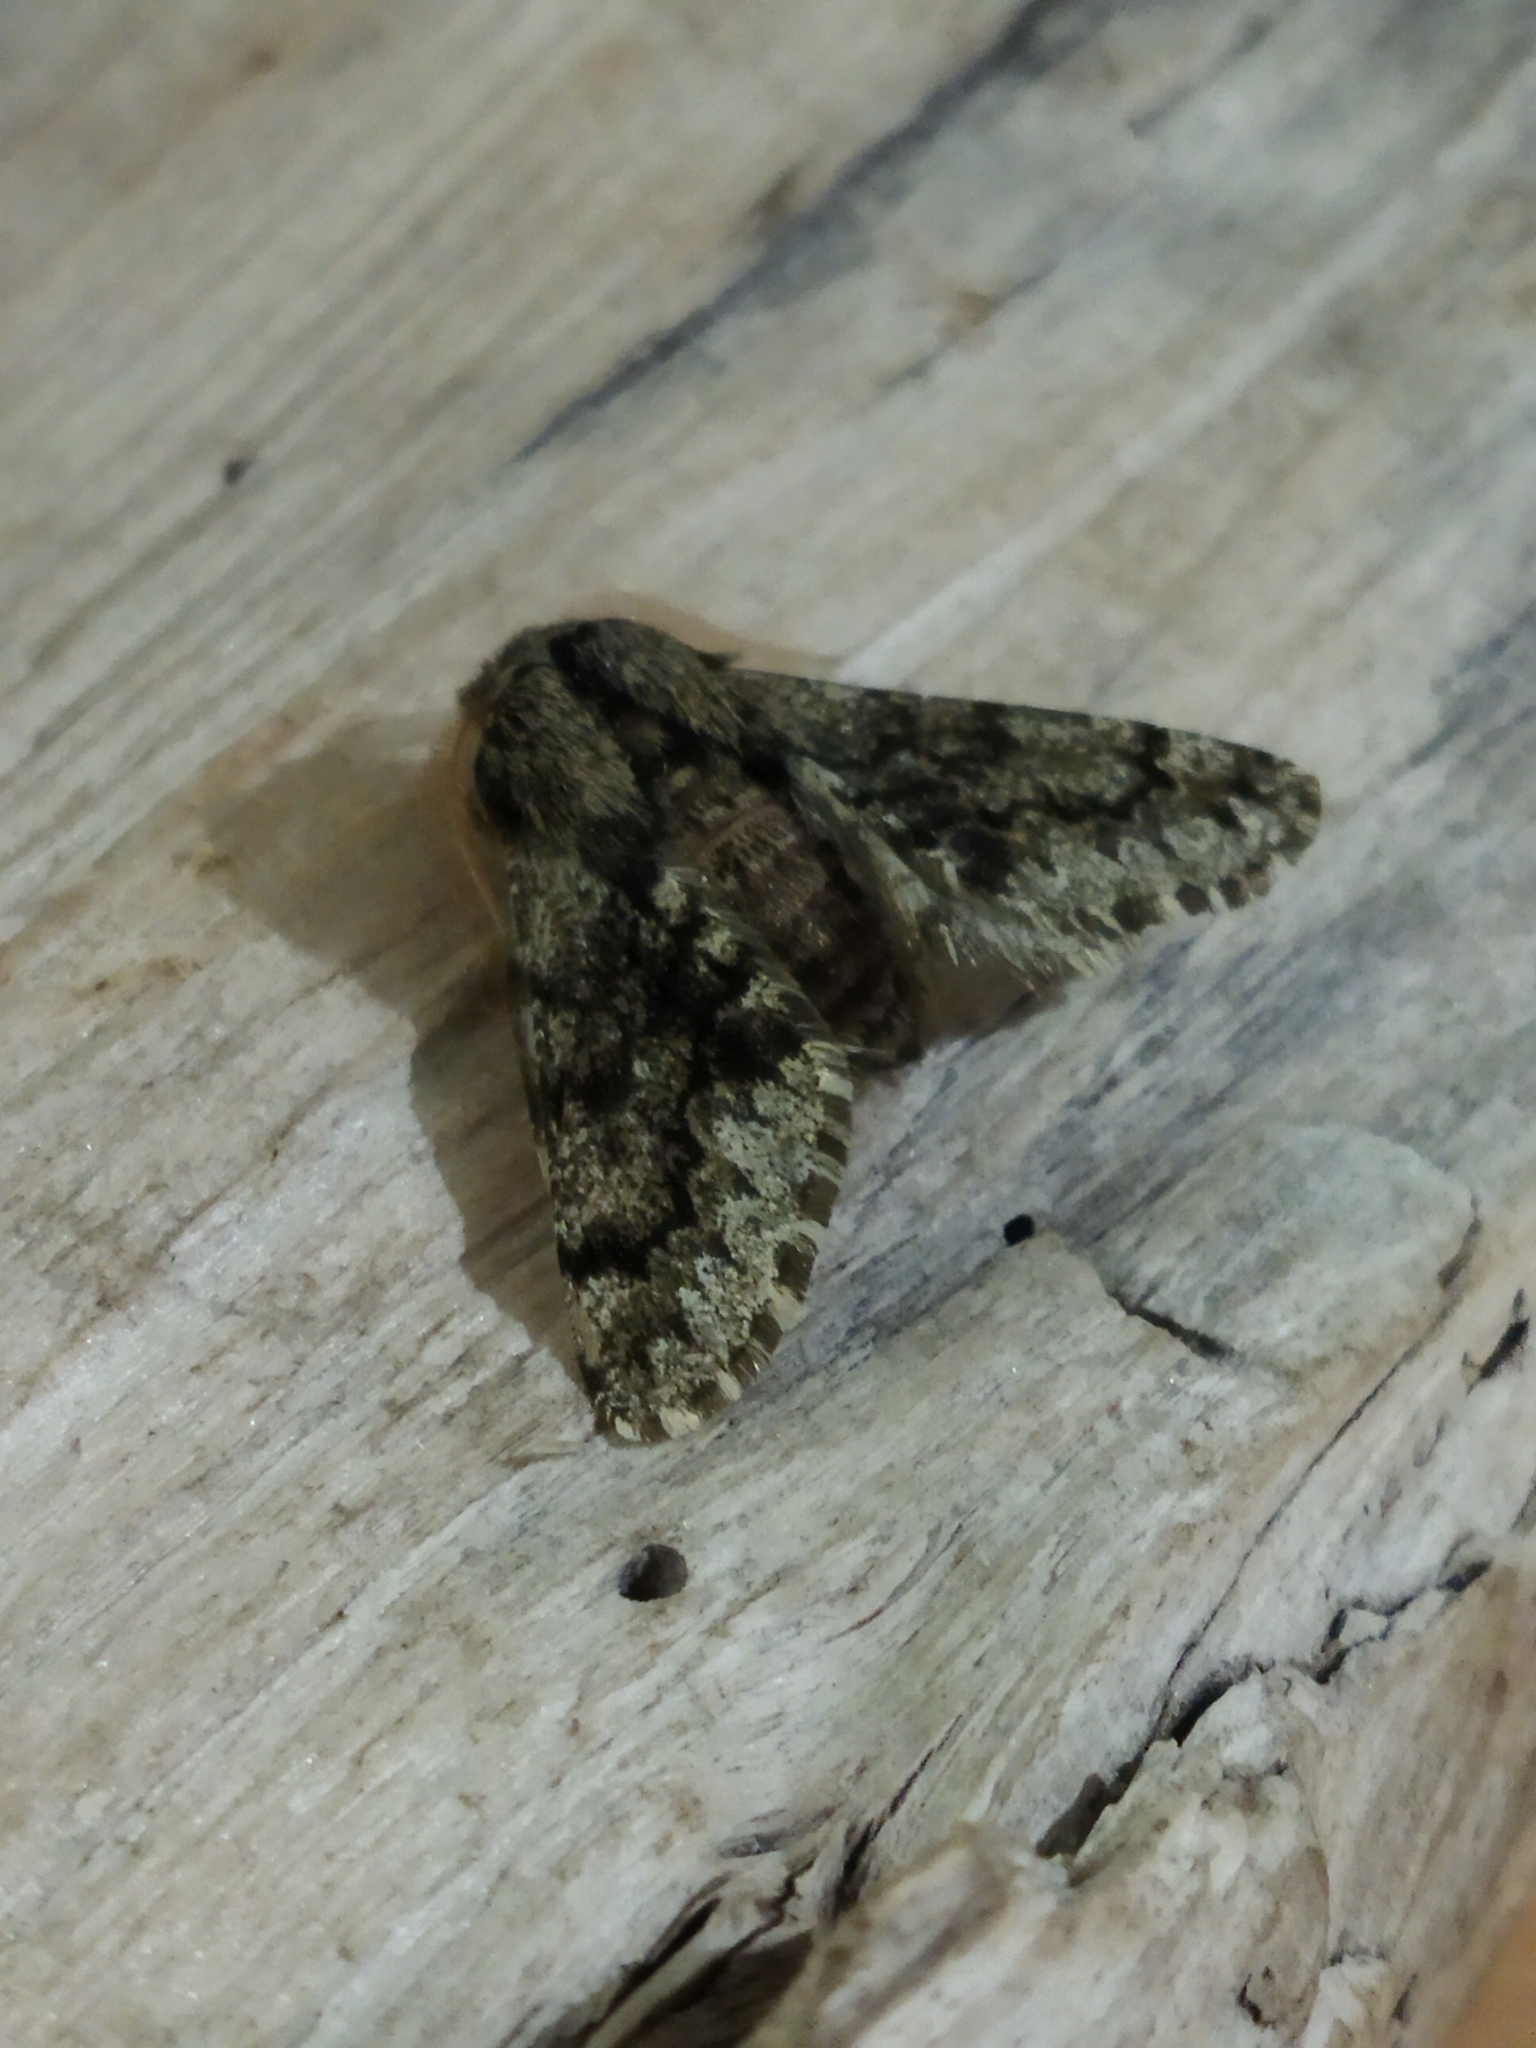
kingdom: Animalia
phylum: Arthropoda
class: Insecta
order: Lepidoptera
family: Geometridae
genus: Apocheima
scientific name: Apocheima hispidaria
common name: Small brindled beauty
